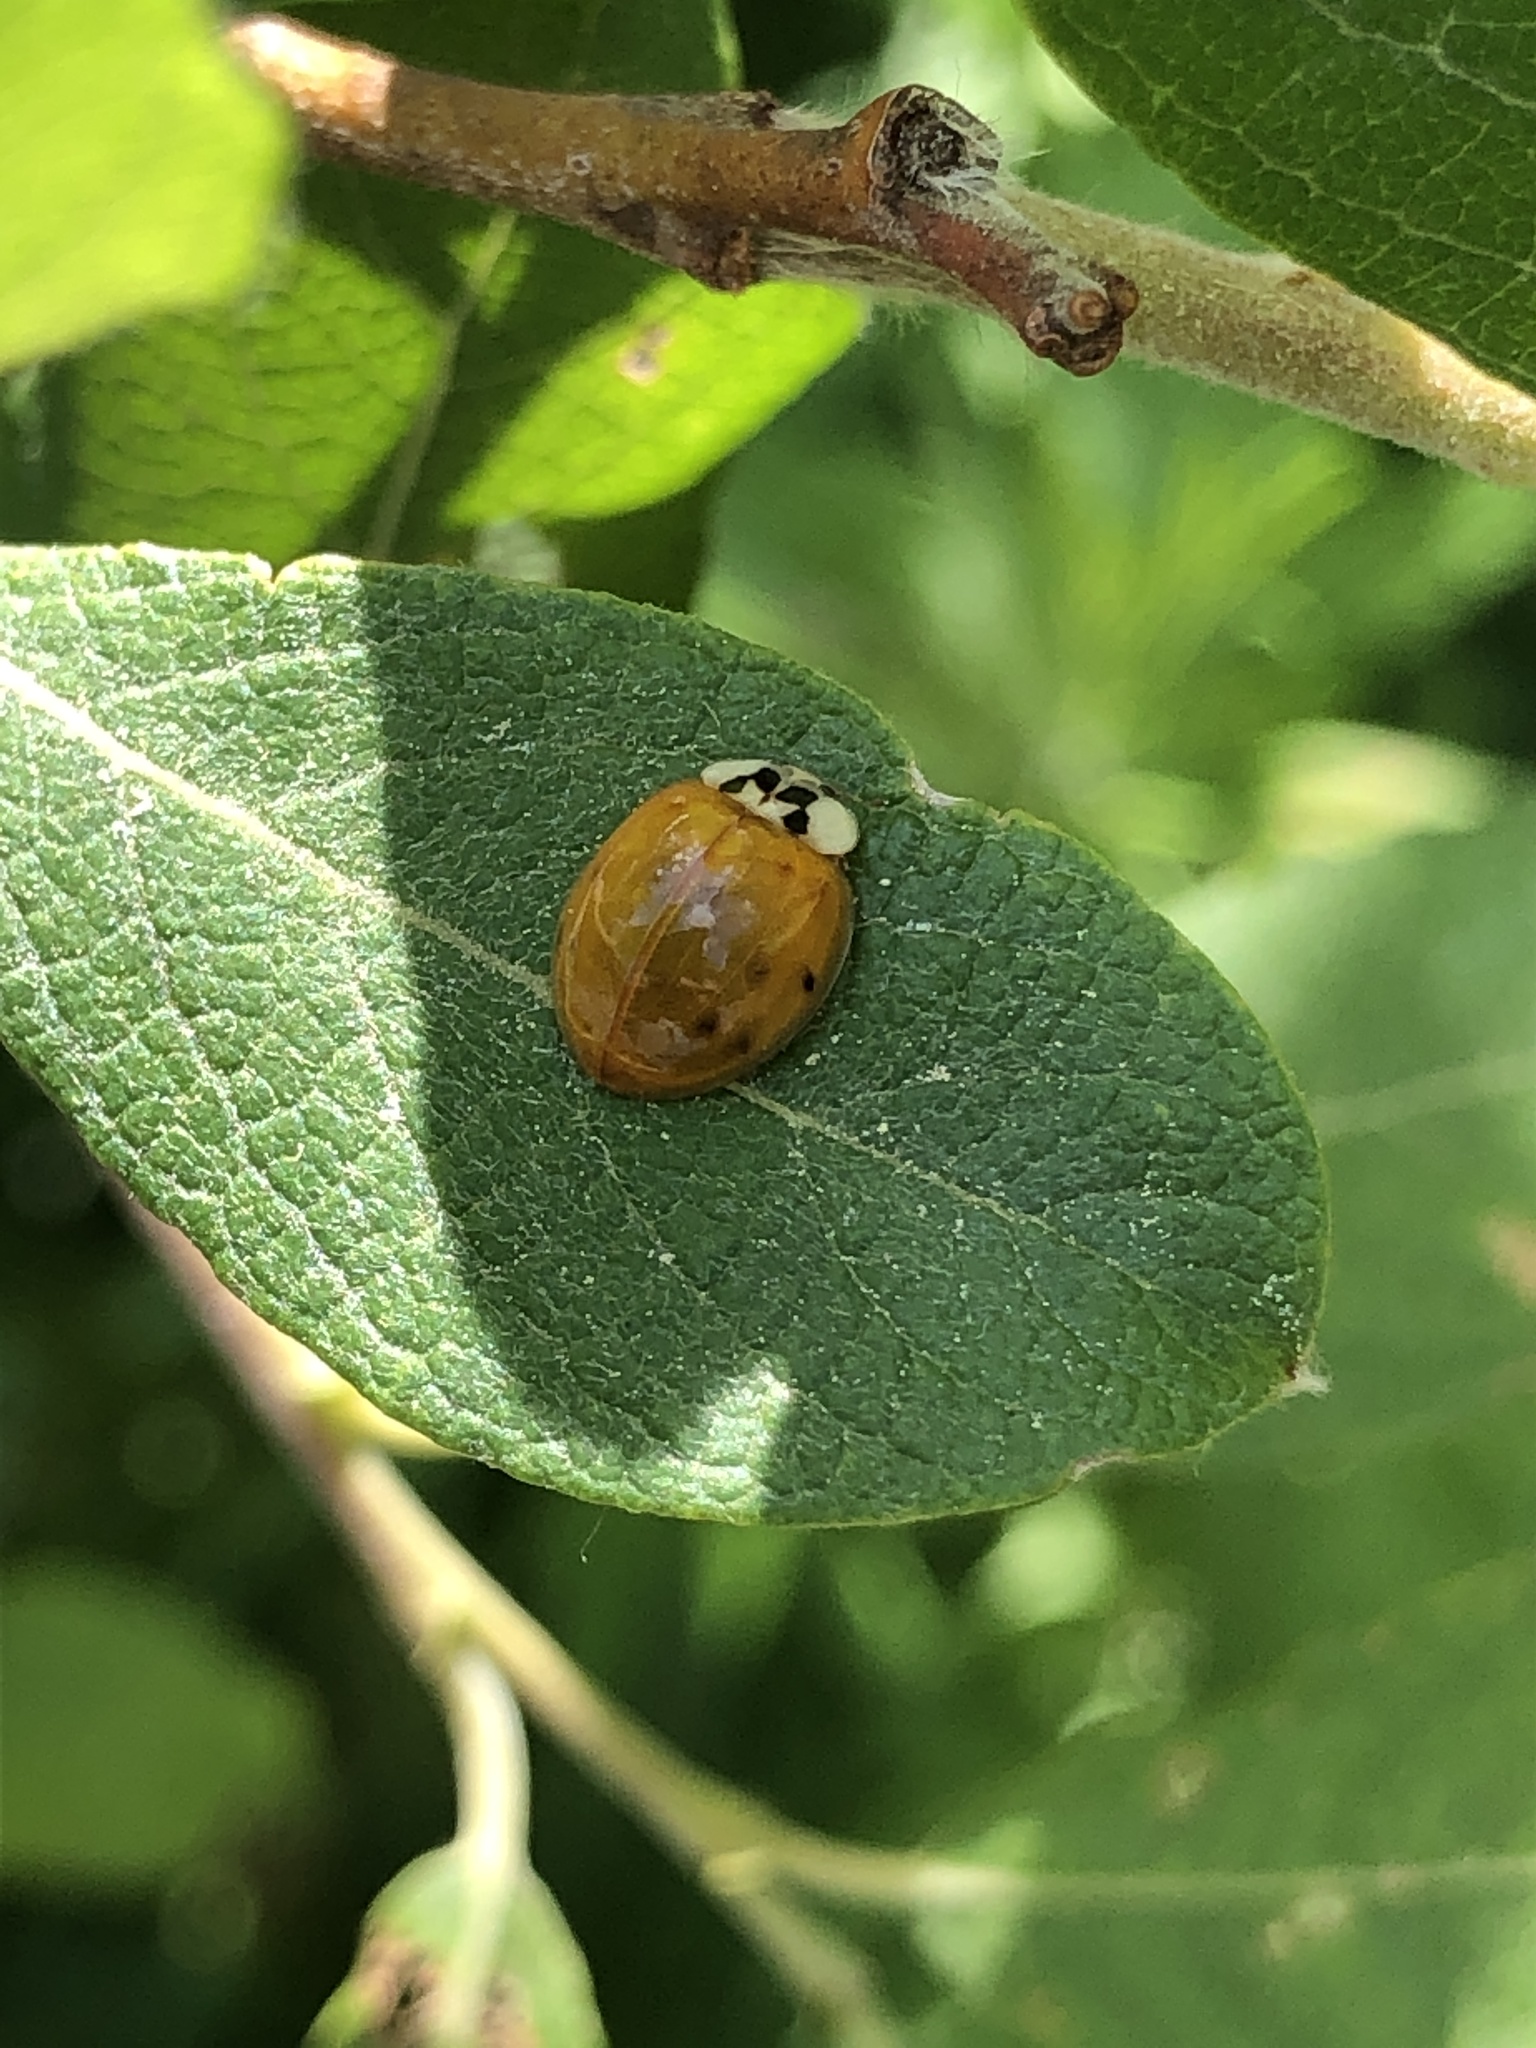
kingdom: Animalia
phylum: Arthropoda
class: Insecta
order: Coleoptera
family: Coccinellidae
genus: Harmonia
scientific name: Harmonia axyridis
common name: Harlequin ladybird
